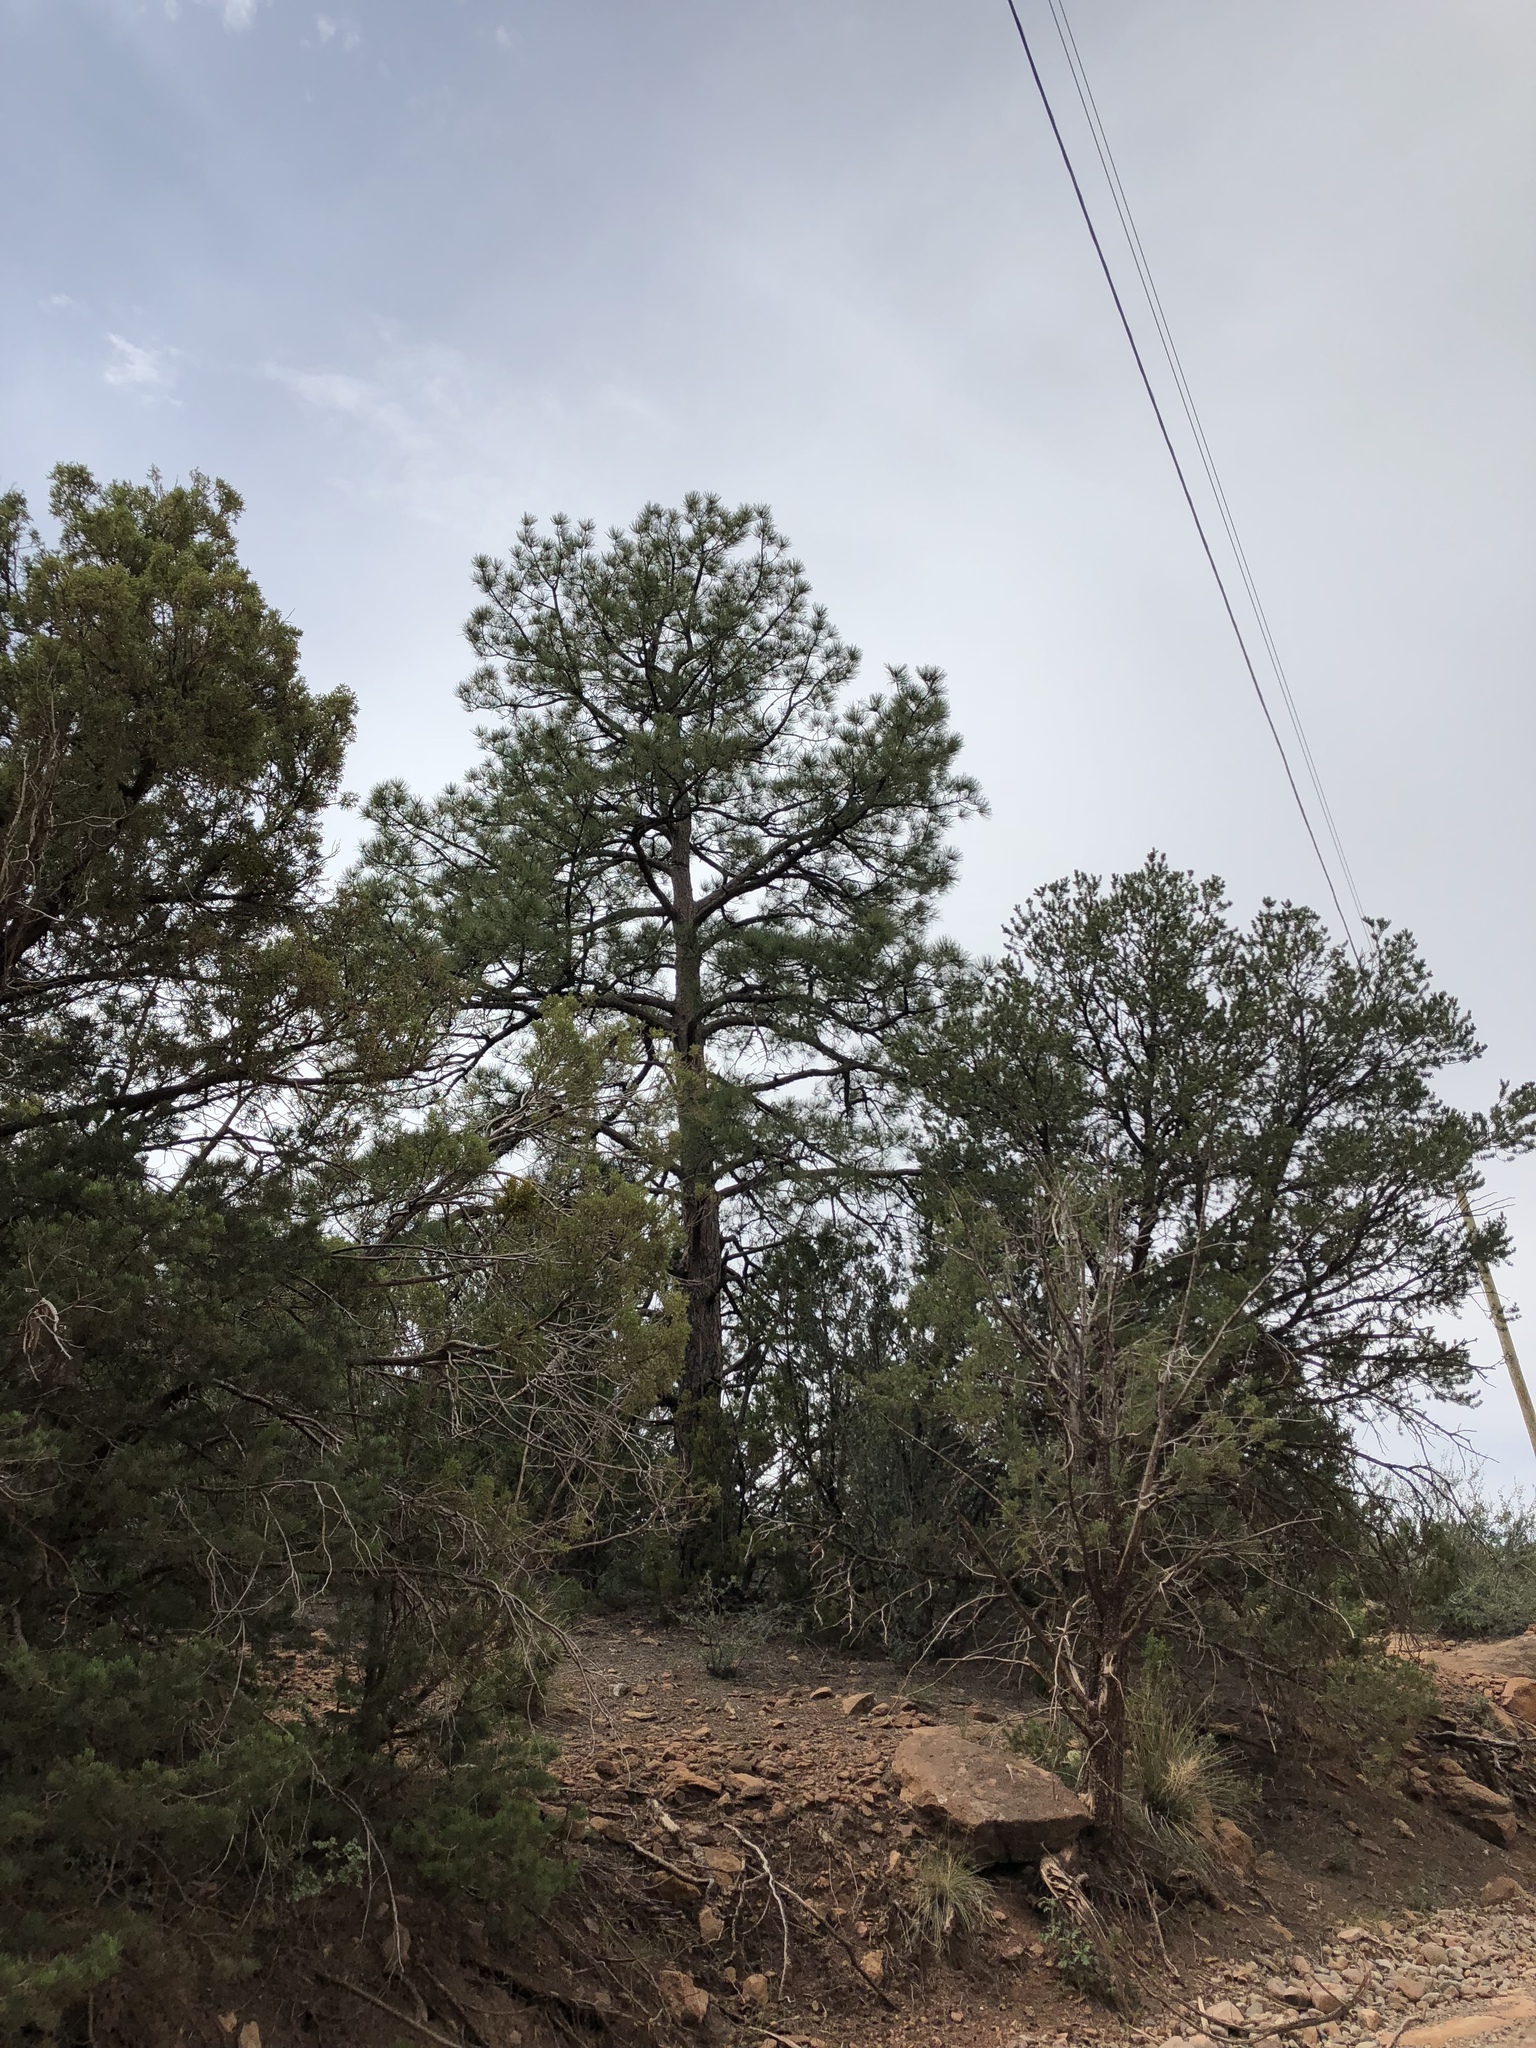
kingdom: Plantae
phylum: Tracheophyta
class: Pinopsida
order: Pinales
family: Pinaceae
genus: Pinus
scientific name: Pinus ponderosa
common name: Western yellow-pine
